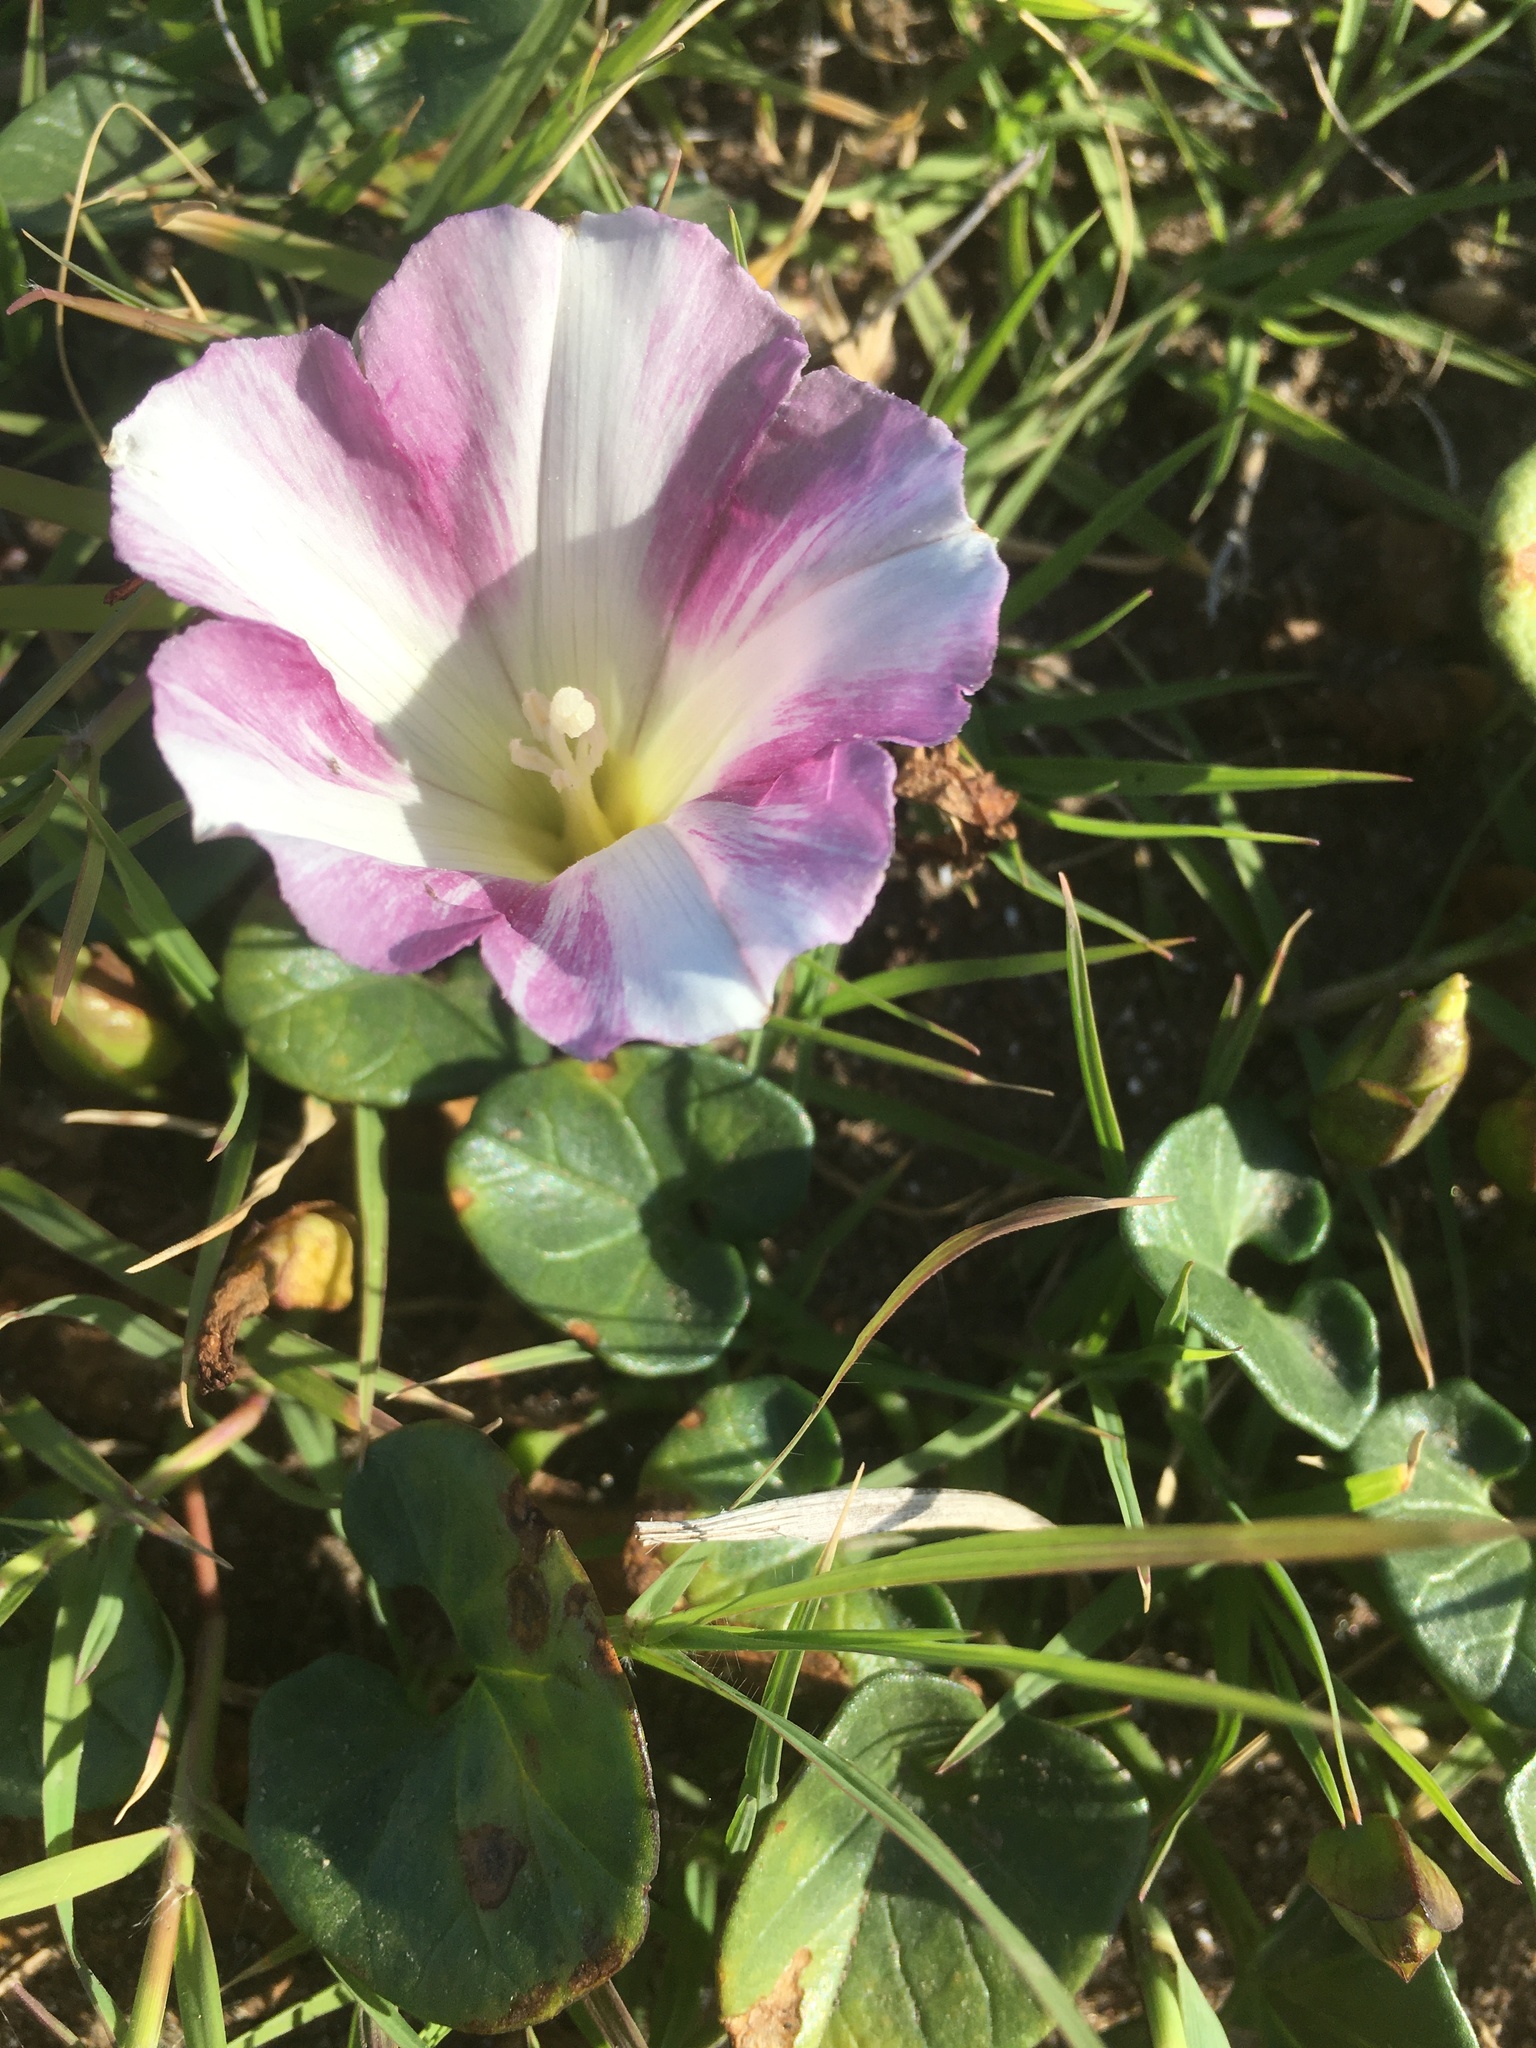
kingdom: Plantae
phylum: Tracheophyta
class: Magnoliopsida
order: Solanales
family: Convolvulaceae
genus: Calystegia
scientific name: Calystegia soldanella
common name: Sea bindweed
